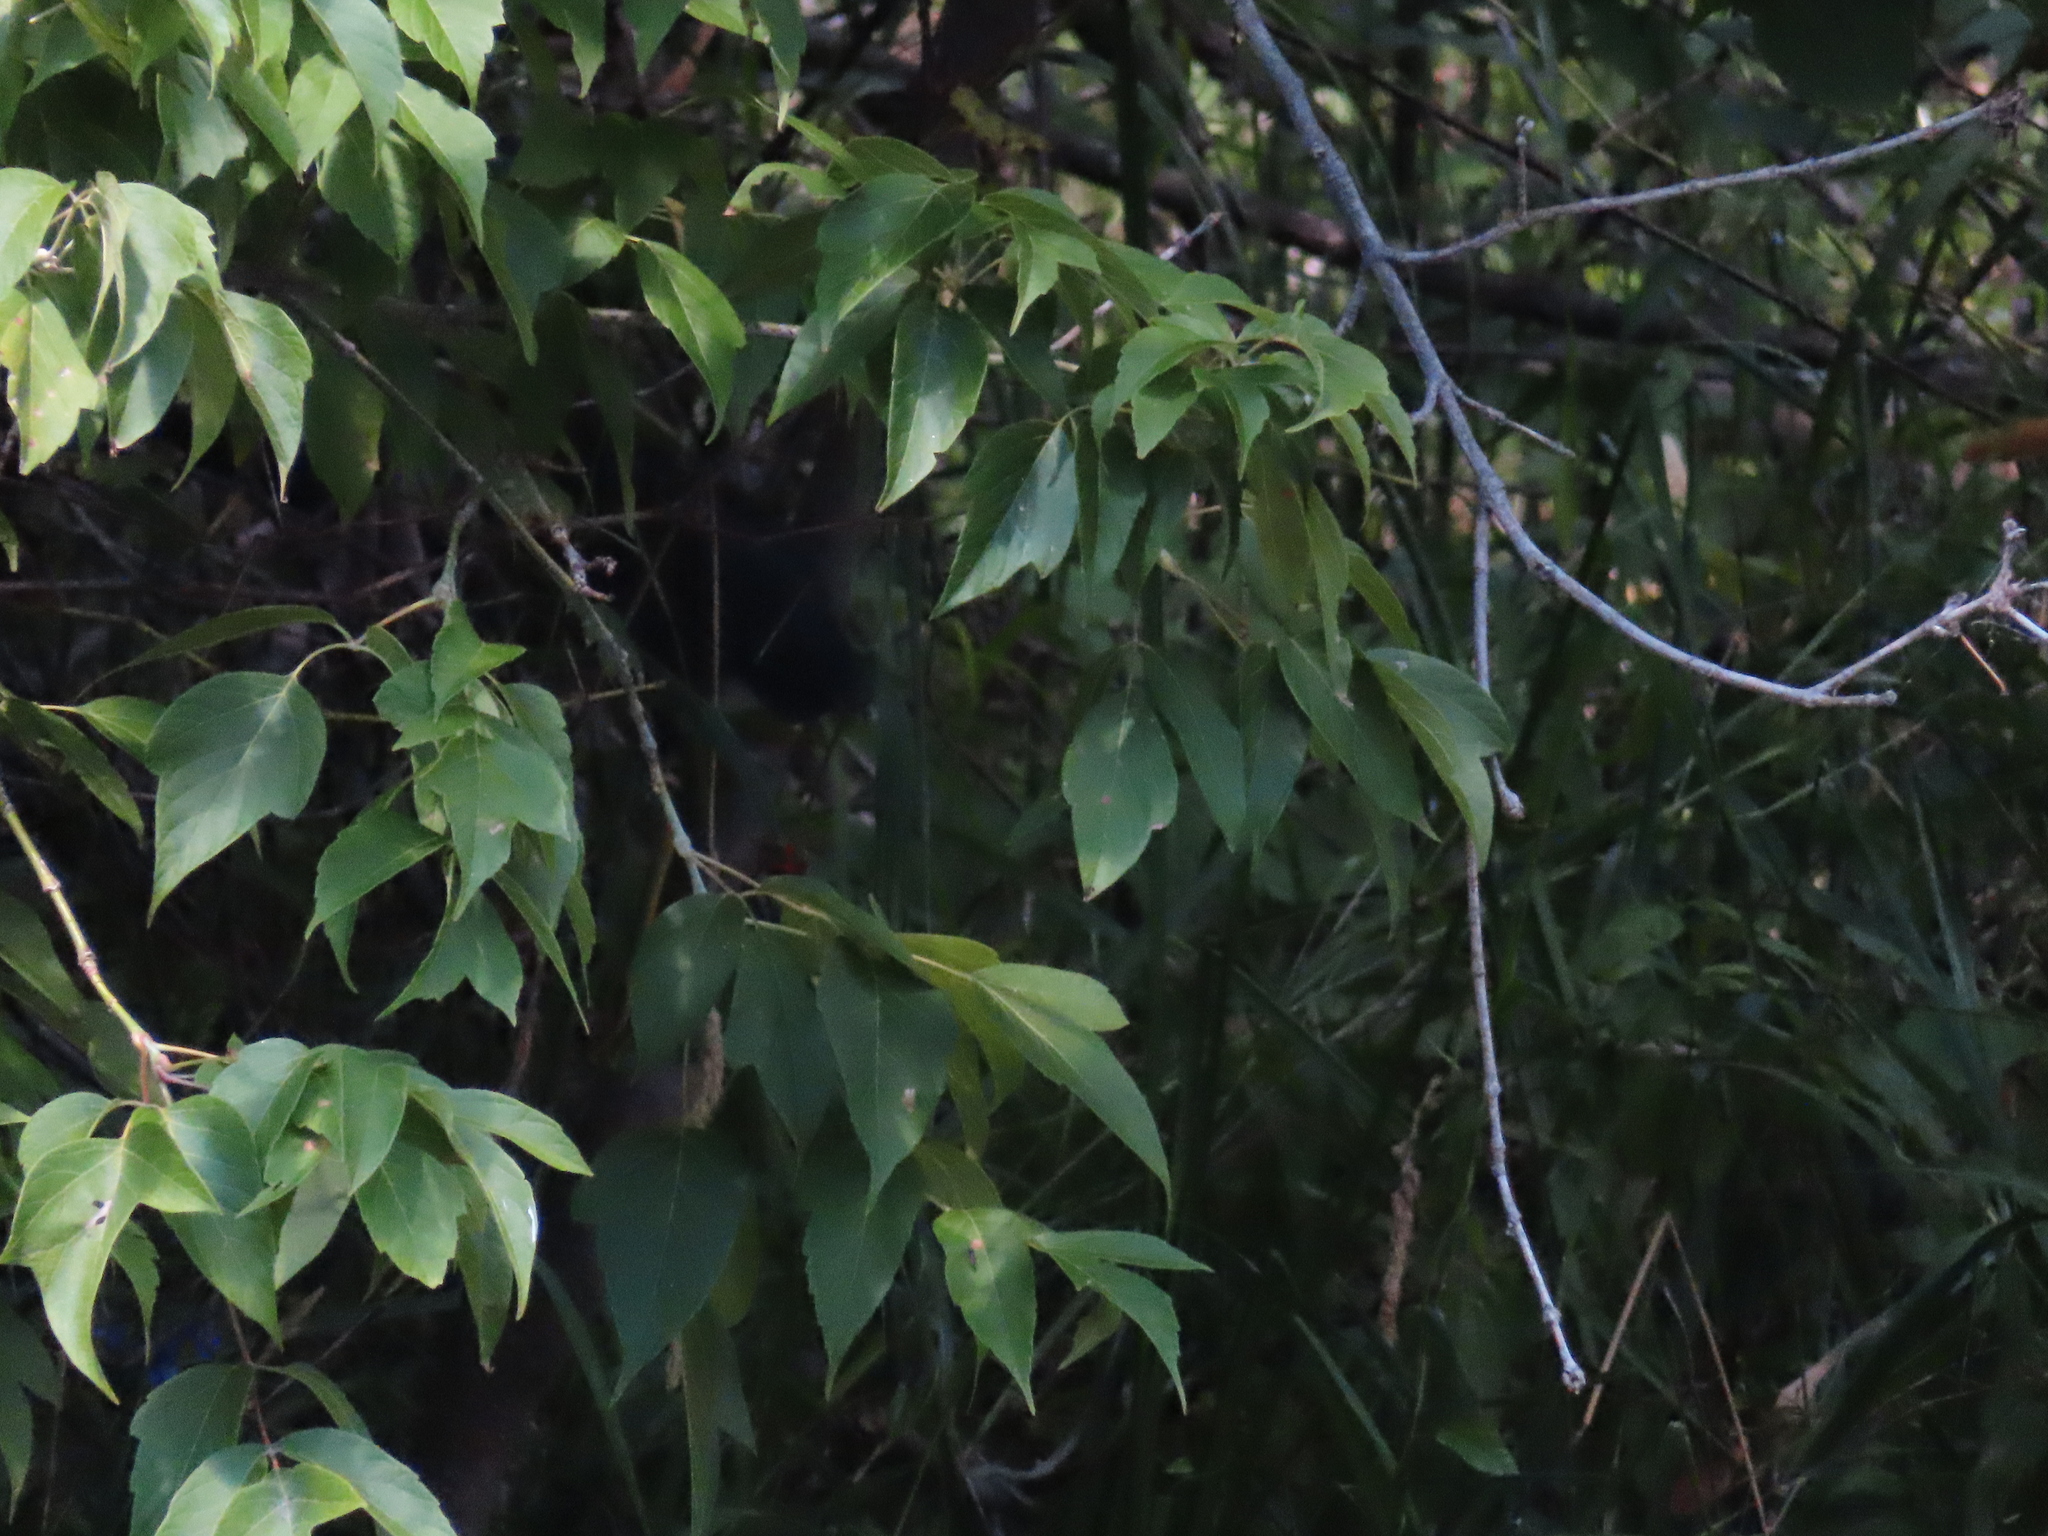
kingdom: Plantae
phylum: Tracheophyta
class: Magnoliopsida
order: Sapindales
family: Sapindaceae
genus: Acer
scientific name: Acer negundo
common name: Ashleaf maple
